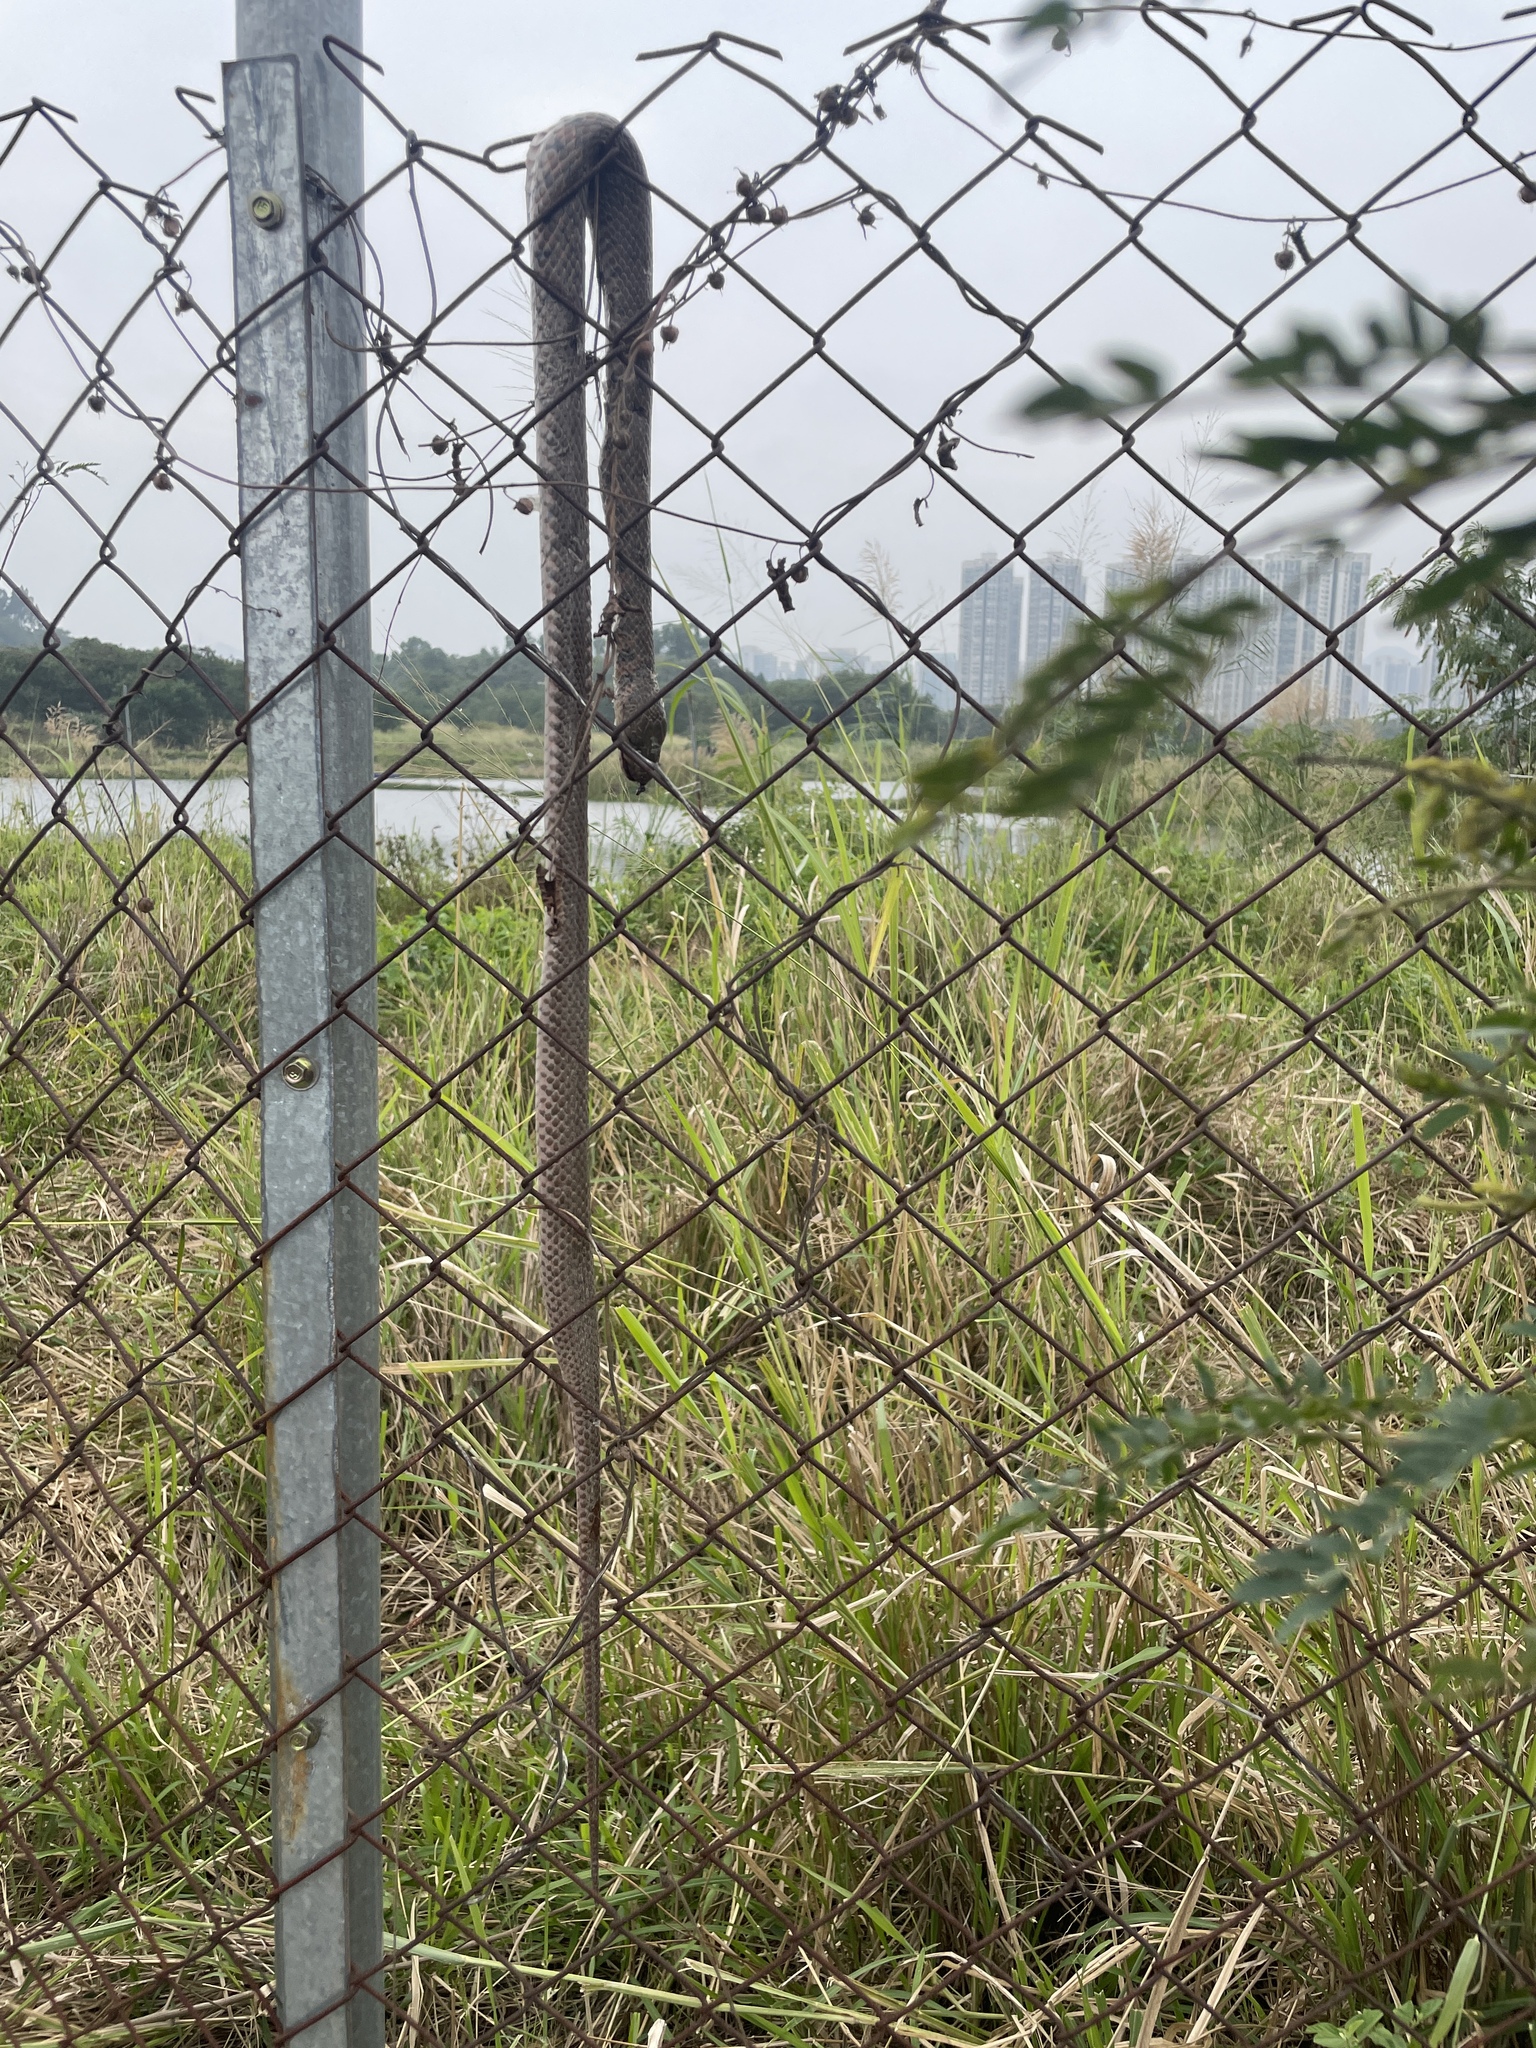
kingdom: Animalia
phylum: Chordata
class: Squamata
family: Colubridae
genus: Fowlea
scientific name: Fowlea flavipunctatus
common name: Yellow-spotted keelback
